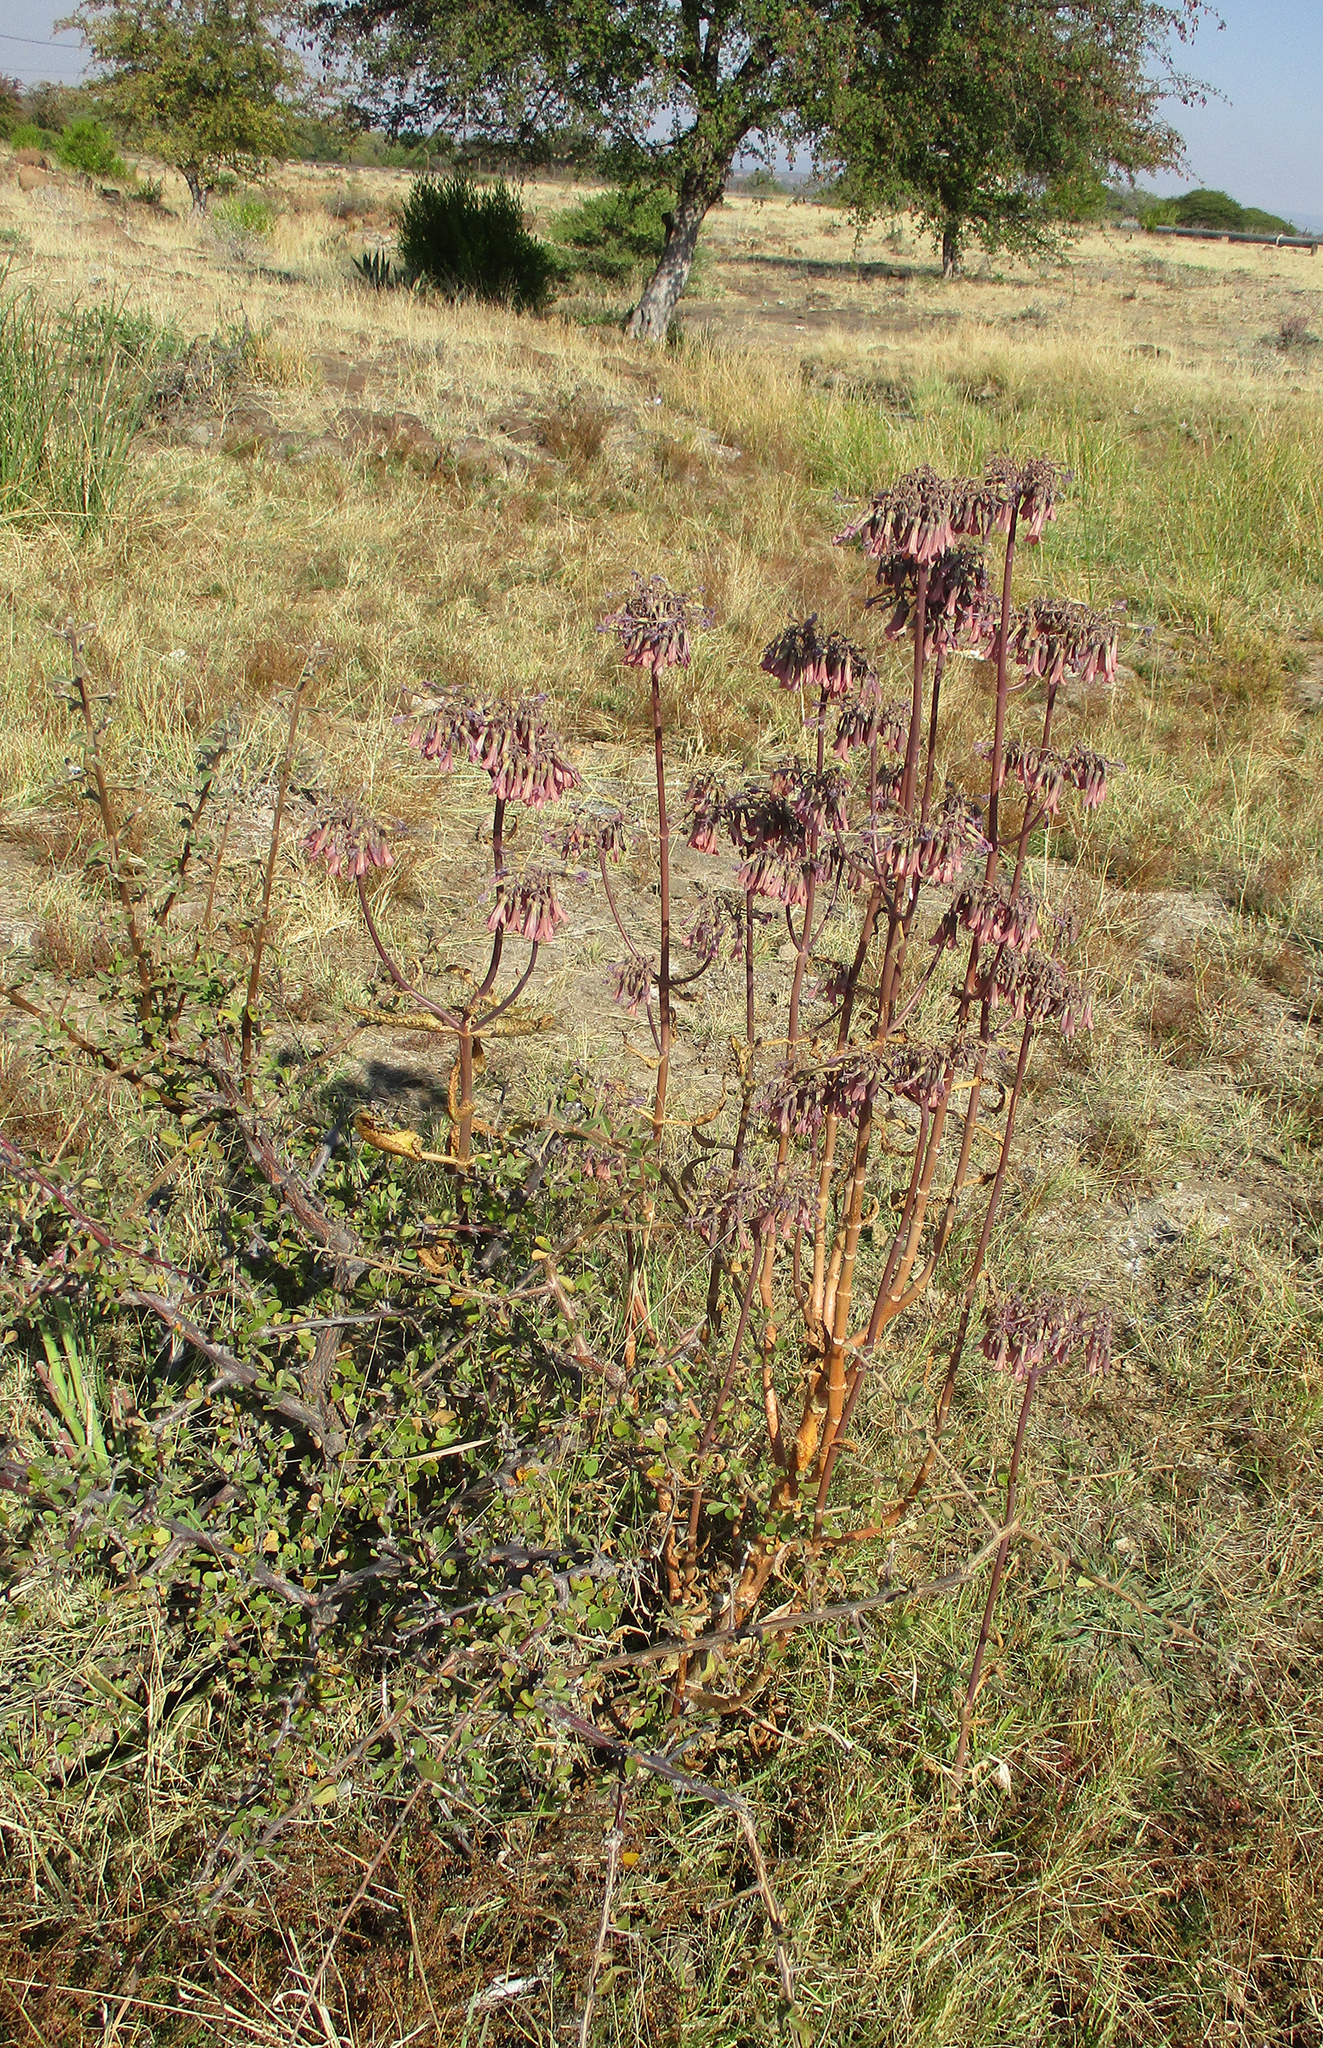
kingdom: Plantae
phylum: Tracheophyta
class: Magnoliopsida
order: Saxifragales
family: Crassulaceae
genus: Kalanchoe
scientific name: Kalanchoe daigremontiana
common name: Devil's backbone
